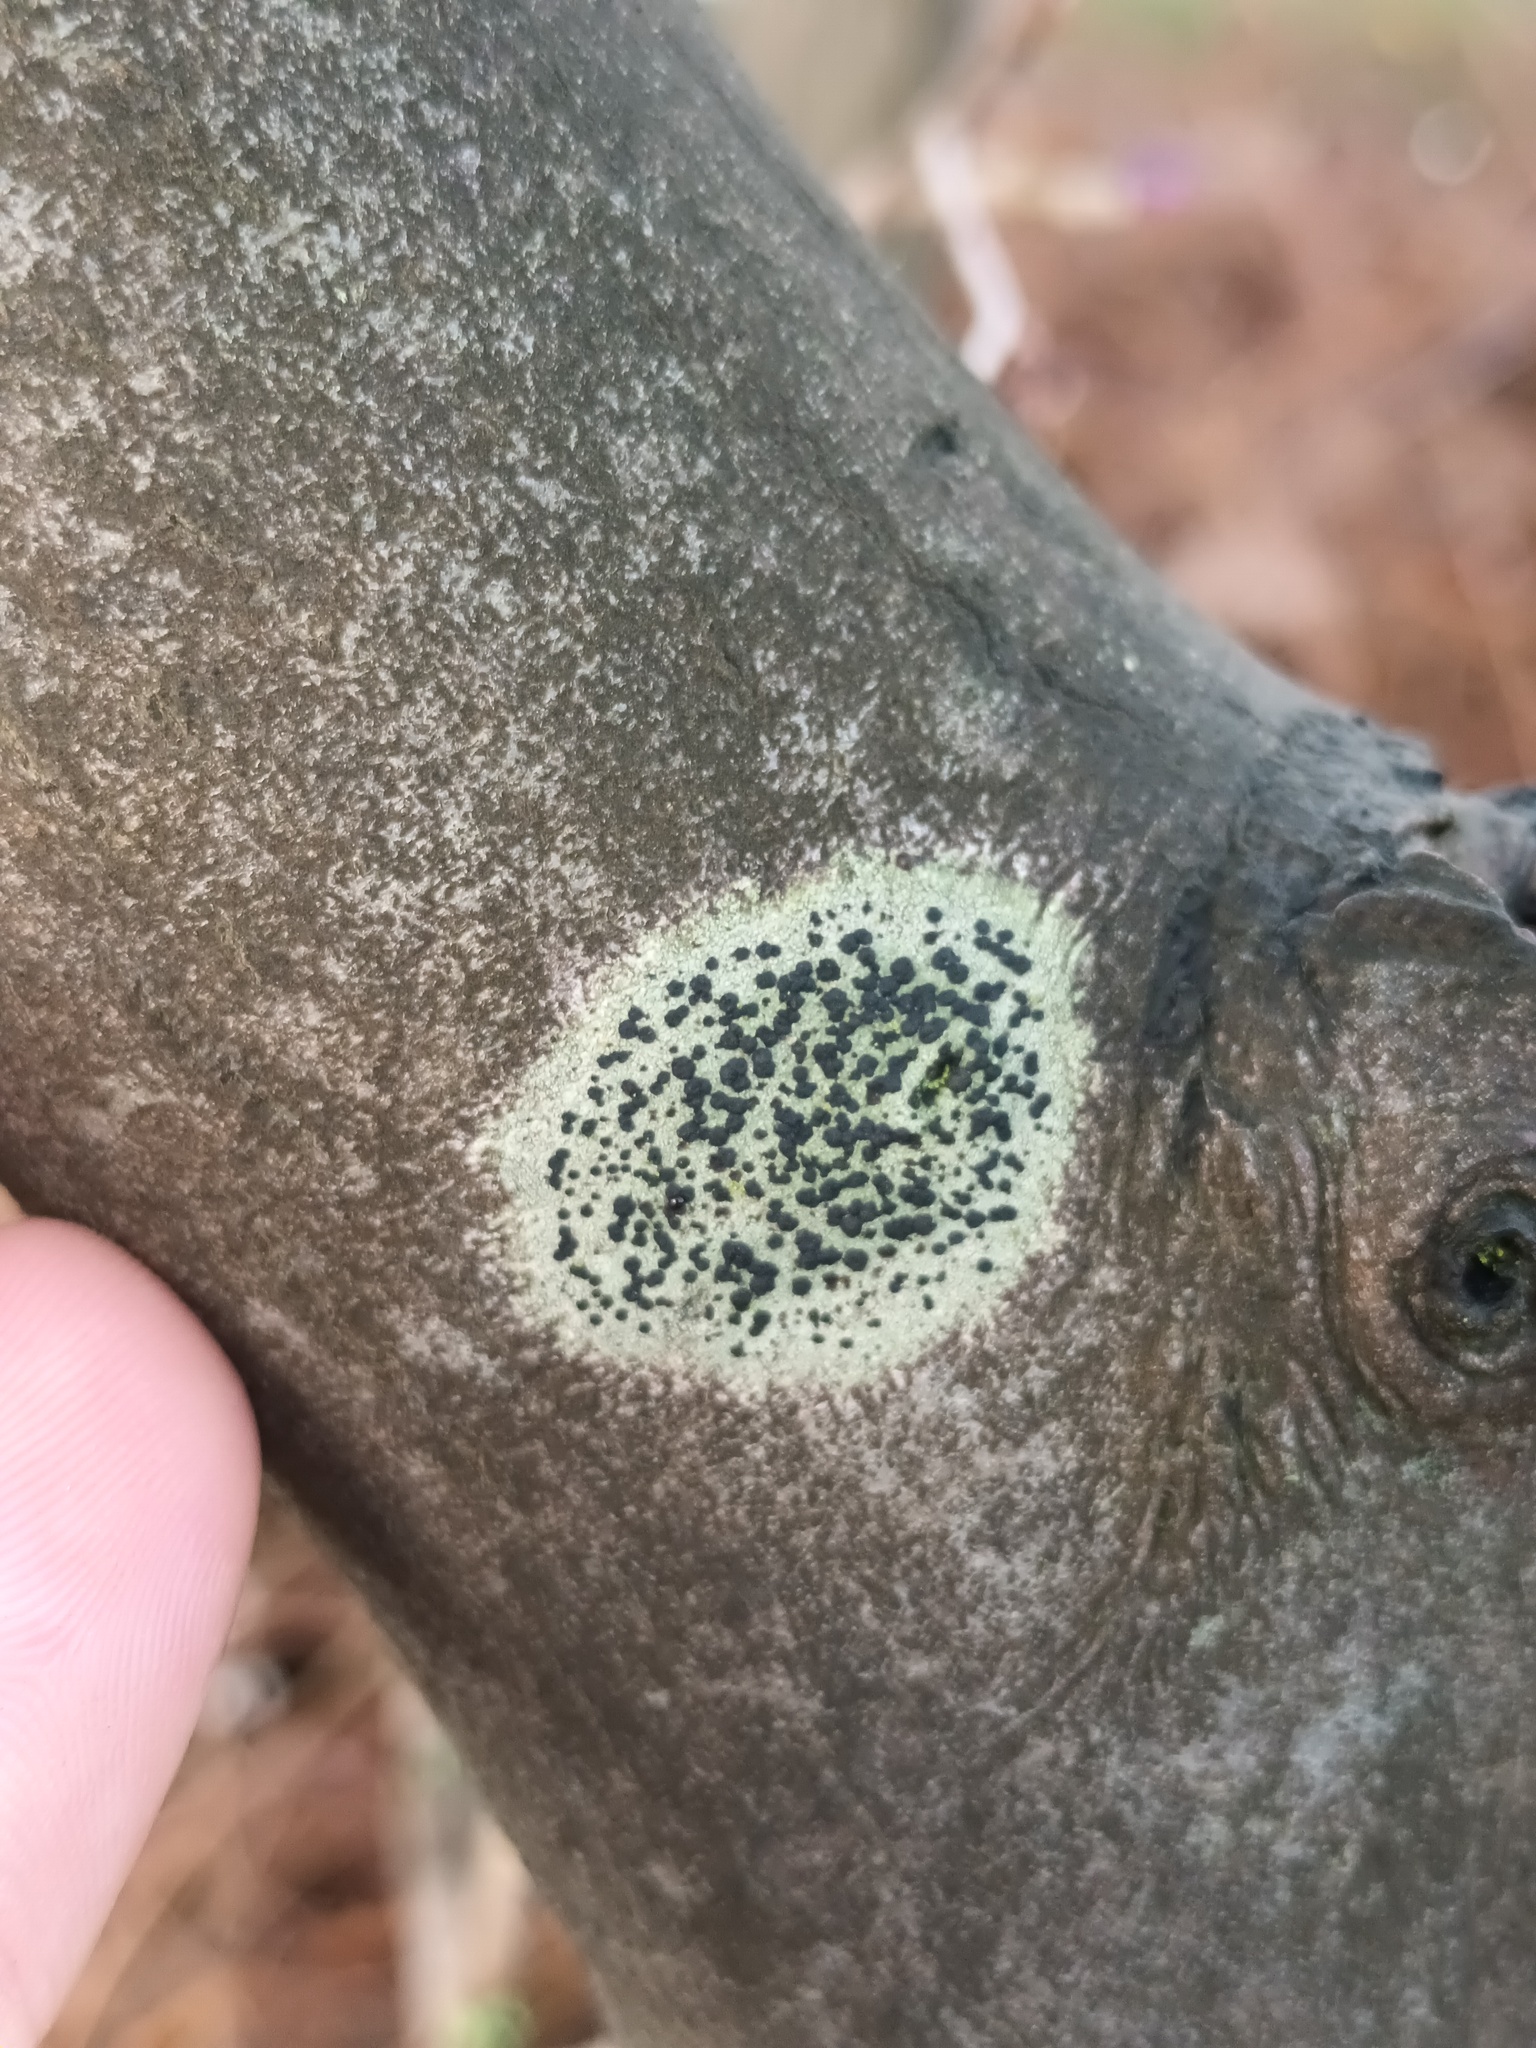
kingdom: Fungi
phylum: Ascomycota
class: Lecanoromycetes
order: Lecanorales
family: Lecanoraceae
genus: Lecidella
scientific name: Lecidella elaeochroma
